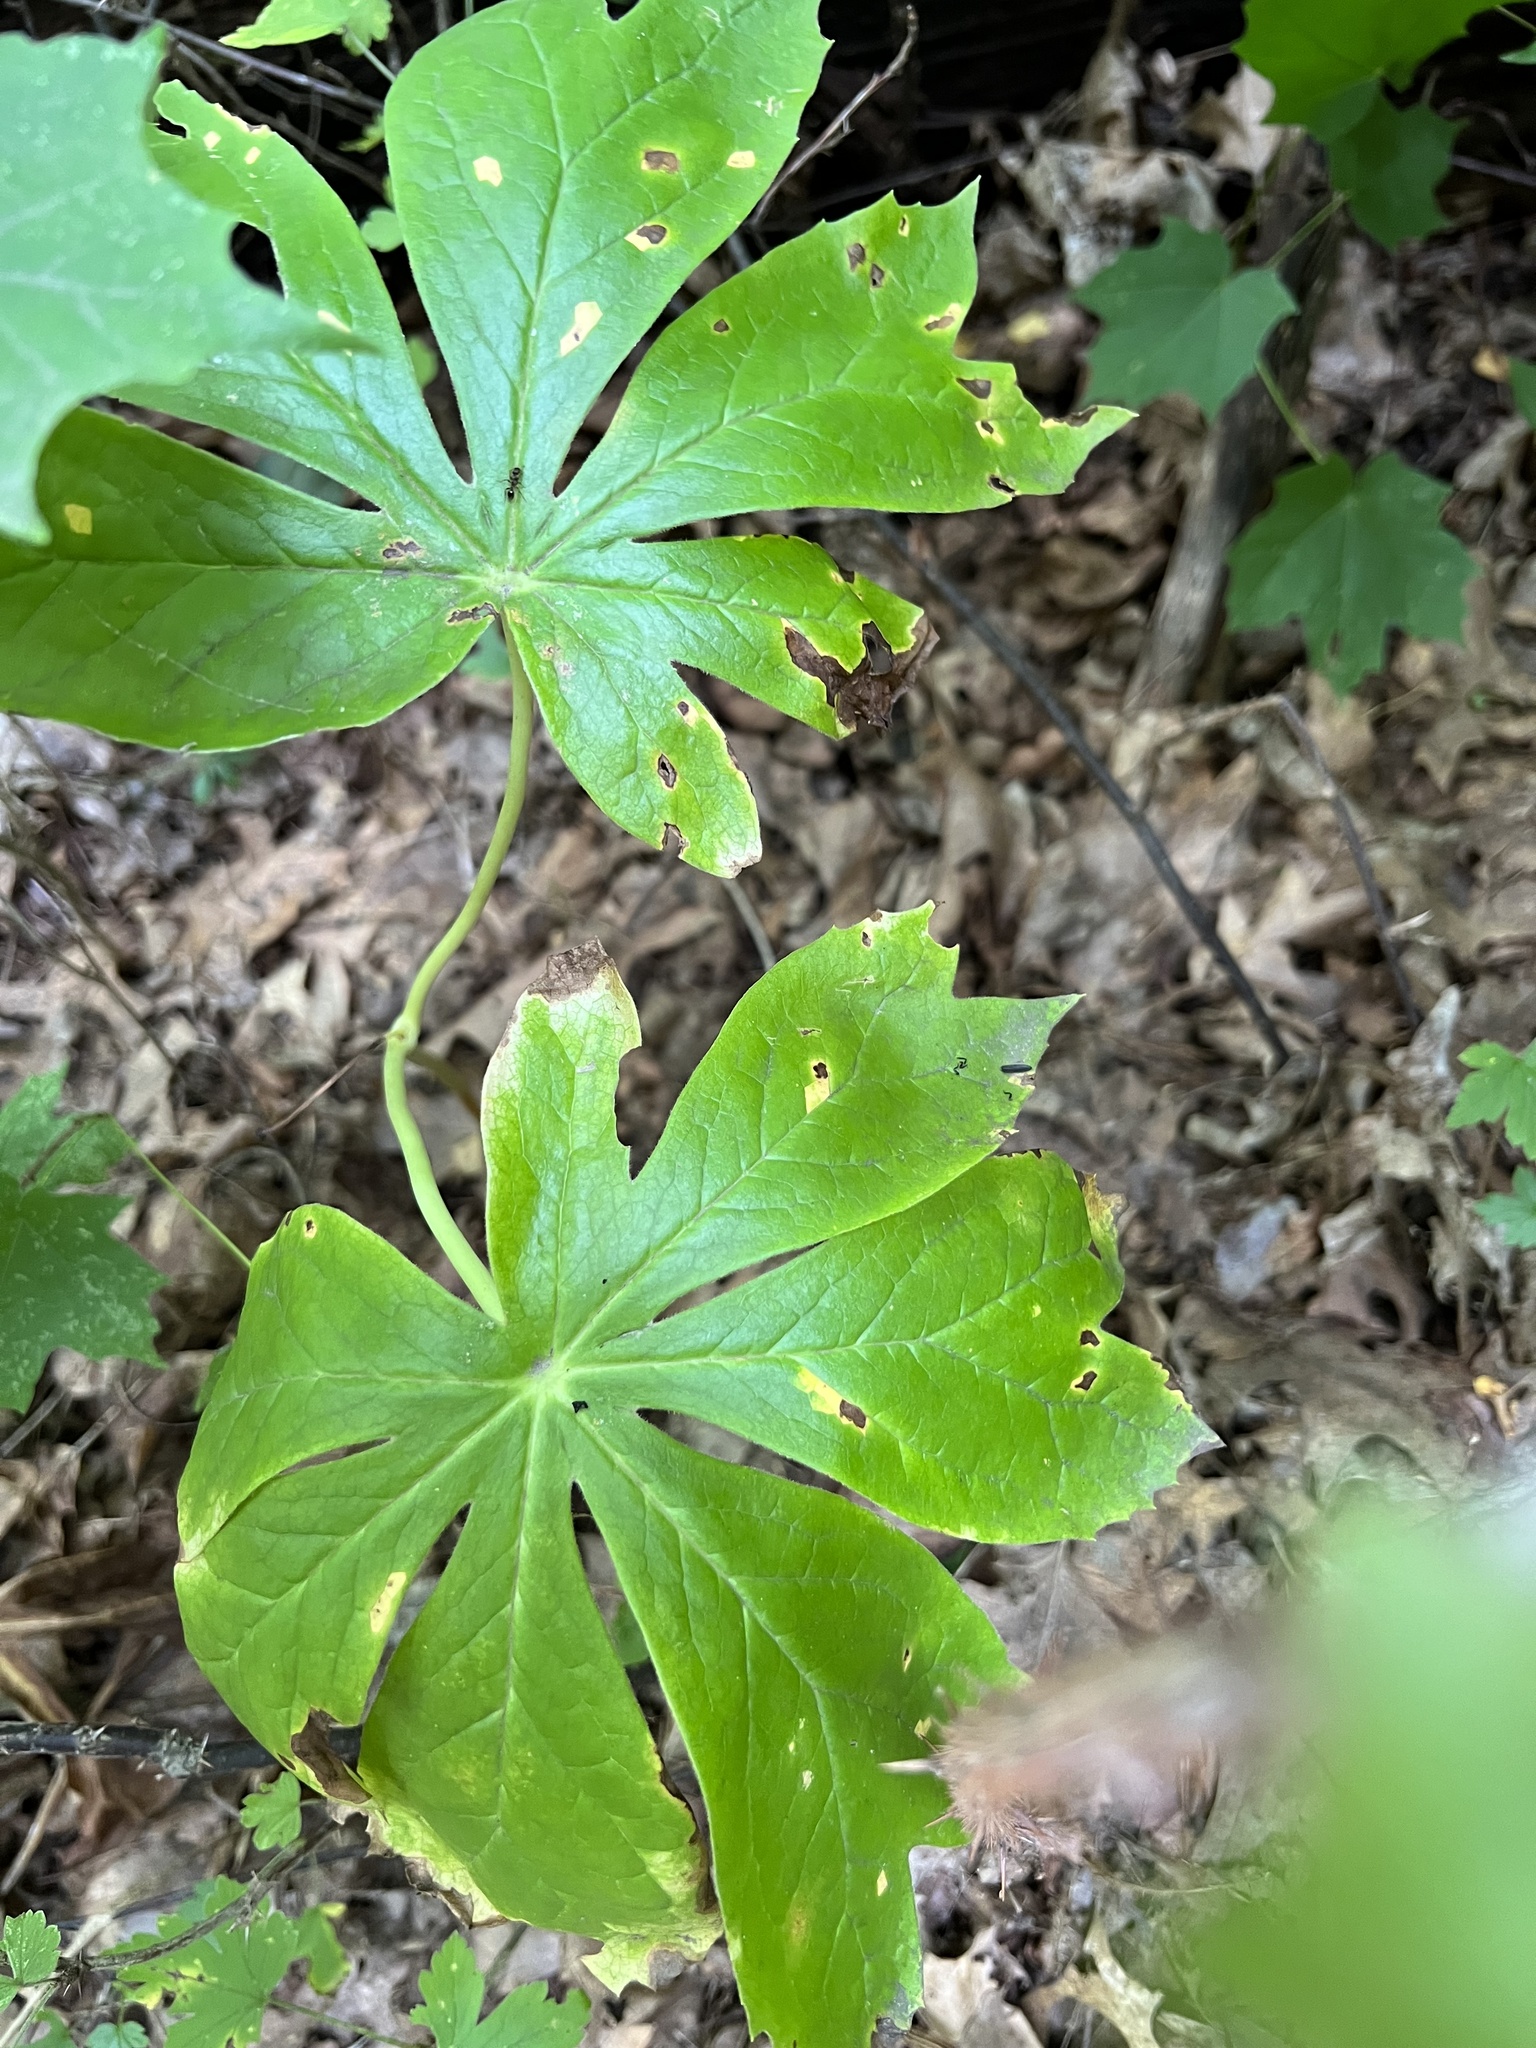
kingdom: Plantae
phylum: Tracheophyta
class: Magnoliopsida
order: Ranunculales
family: Berberidaceae
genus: Podophyllum
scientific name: Podophyllum peltatum
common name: Wild mandrake
